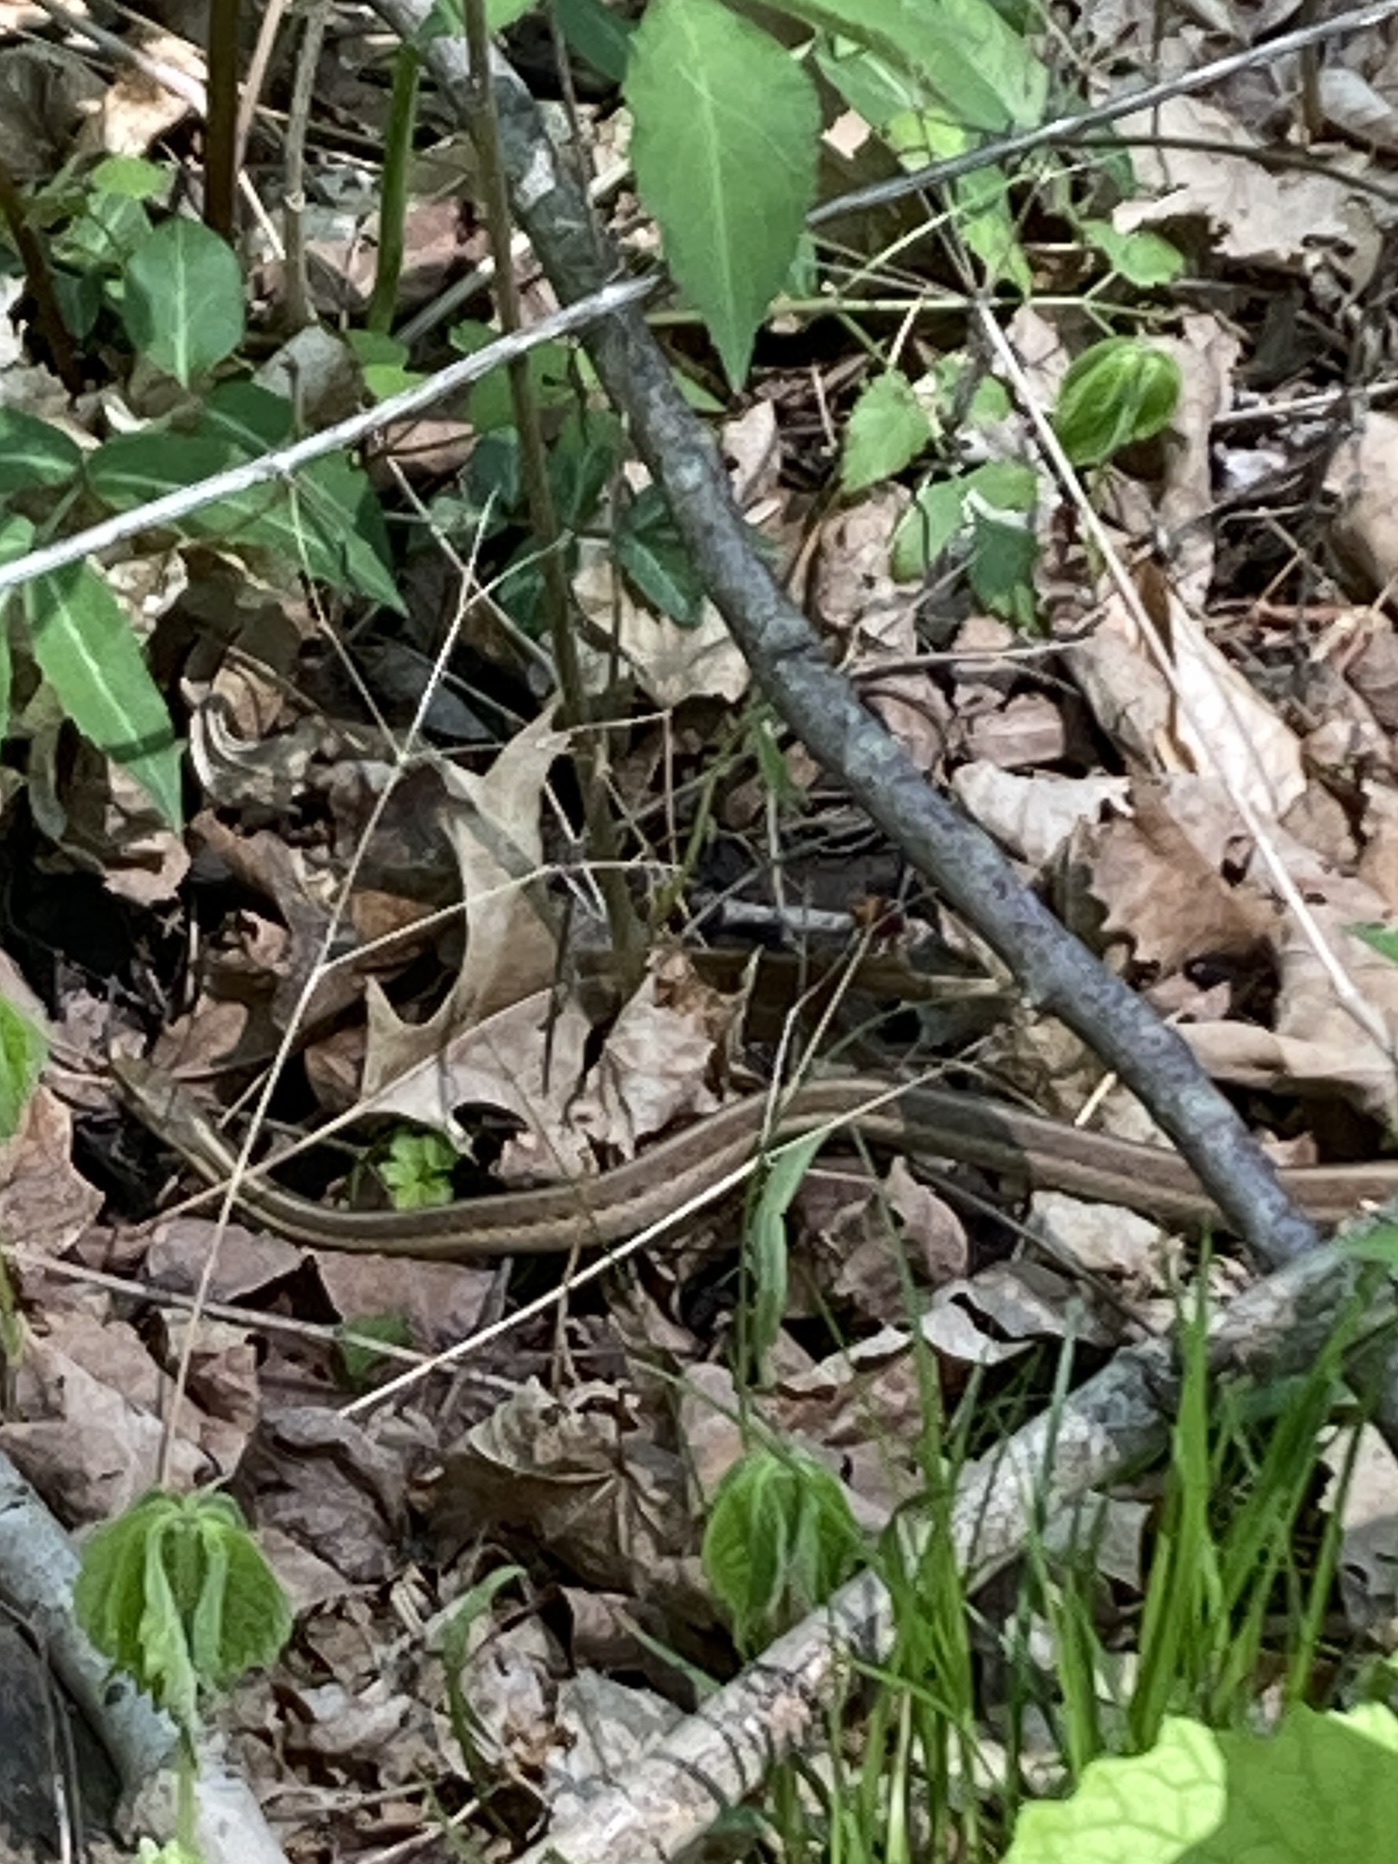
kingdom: Animalia
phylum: Chordata
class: Squamata
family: Colubridae
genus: Thamnophis
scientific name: Thamnophis sirtalis
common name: Common garter snake
